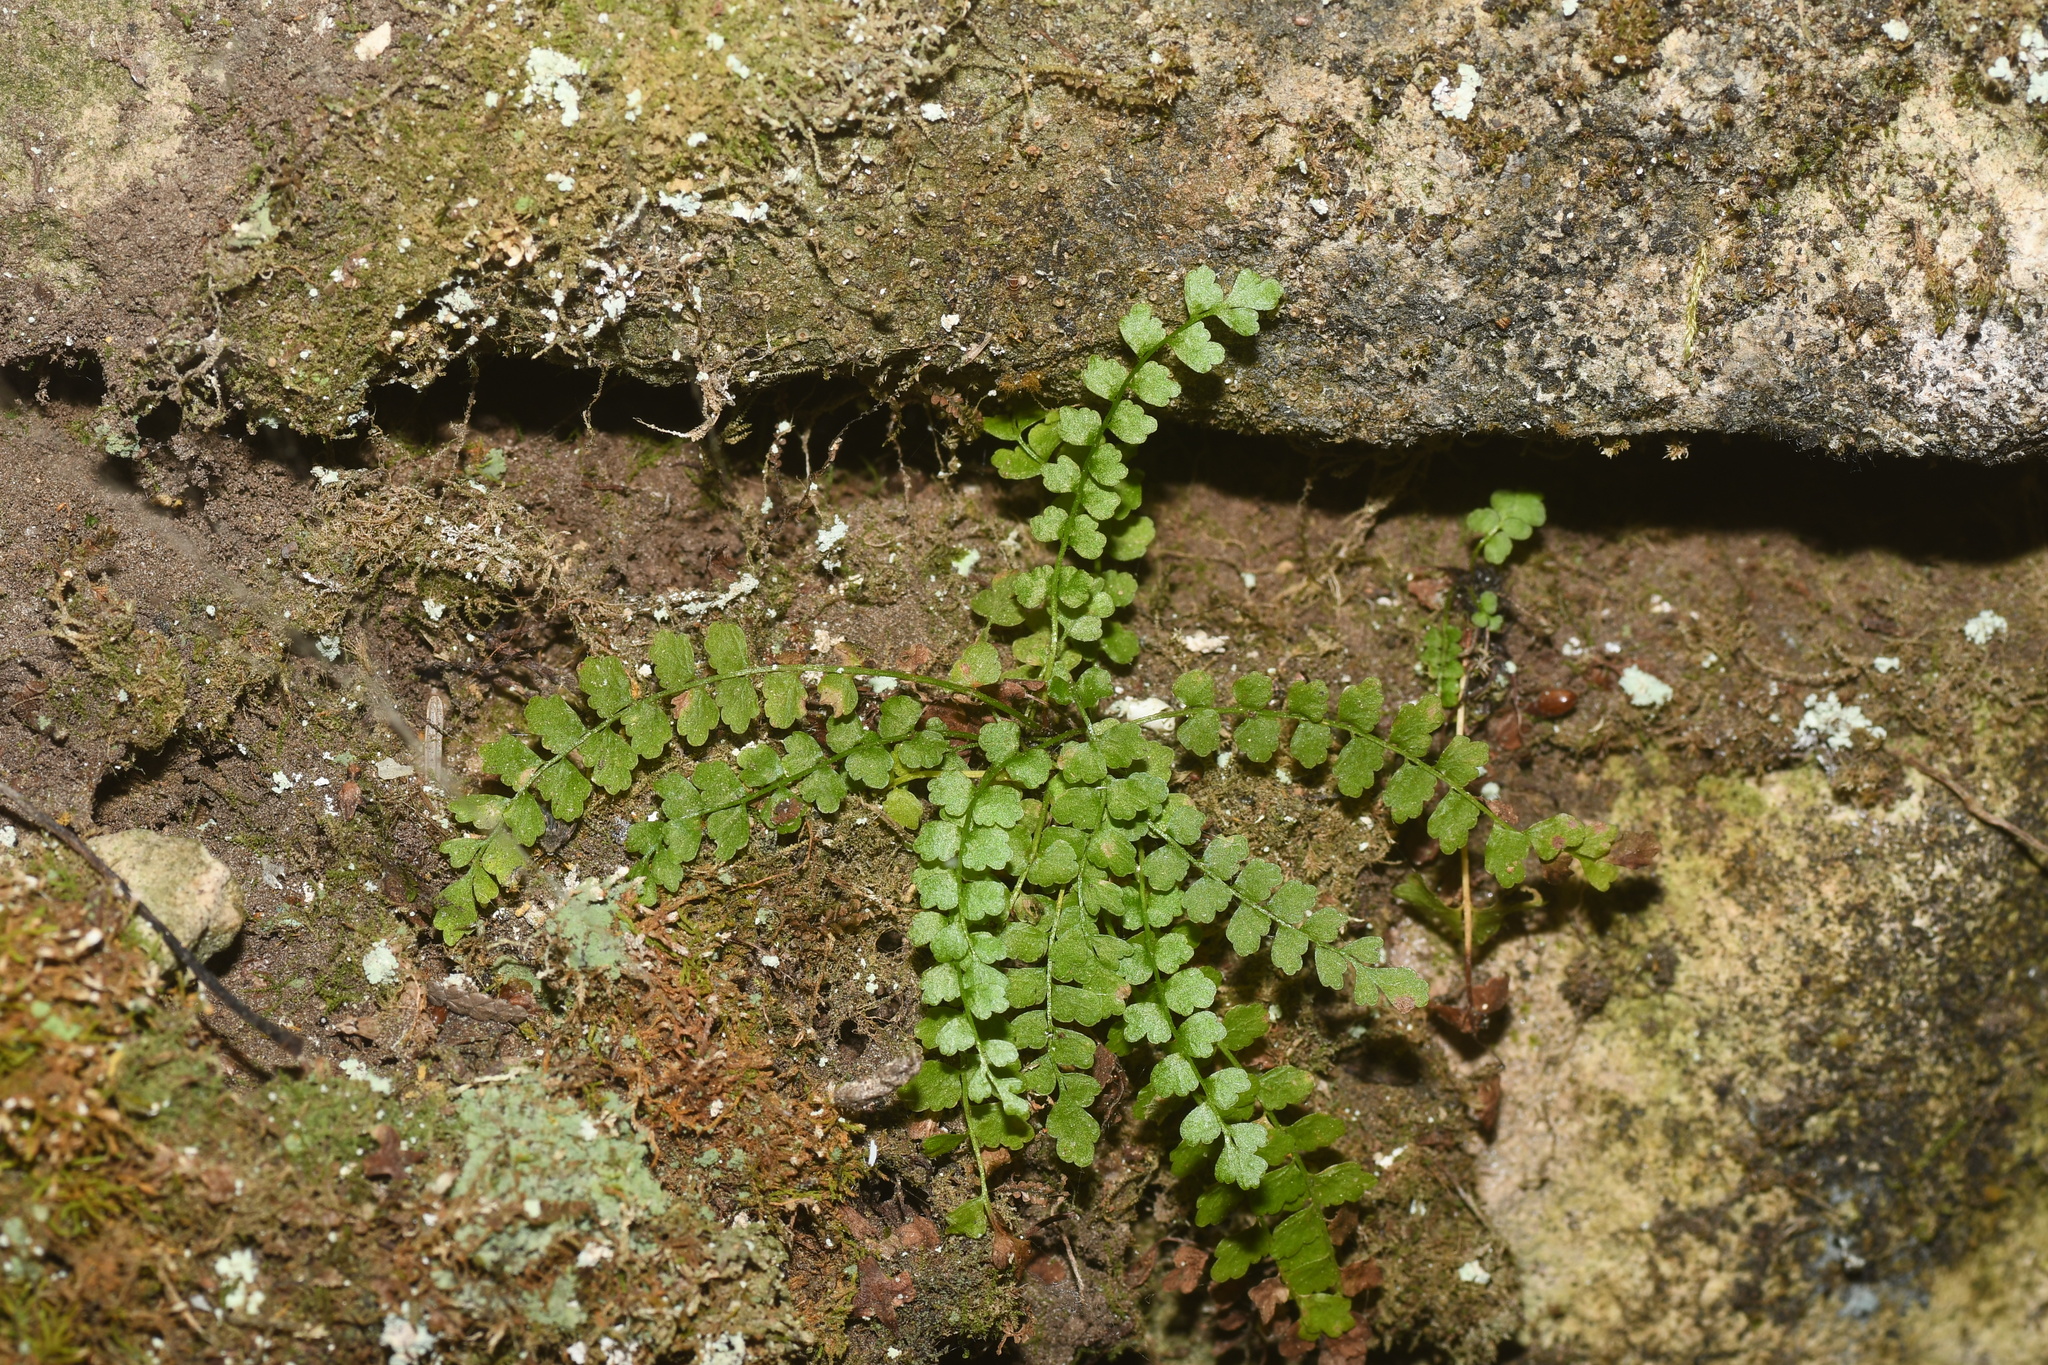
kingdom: Plantae
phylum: Tracheophyta
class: Polypodiopsida
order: Polypodiales
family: Aspleniaceae
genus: Asplenium
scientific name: Asplenium viride
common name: Green spleenwort
